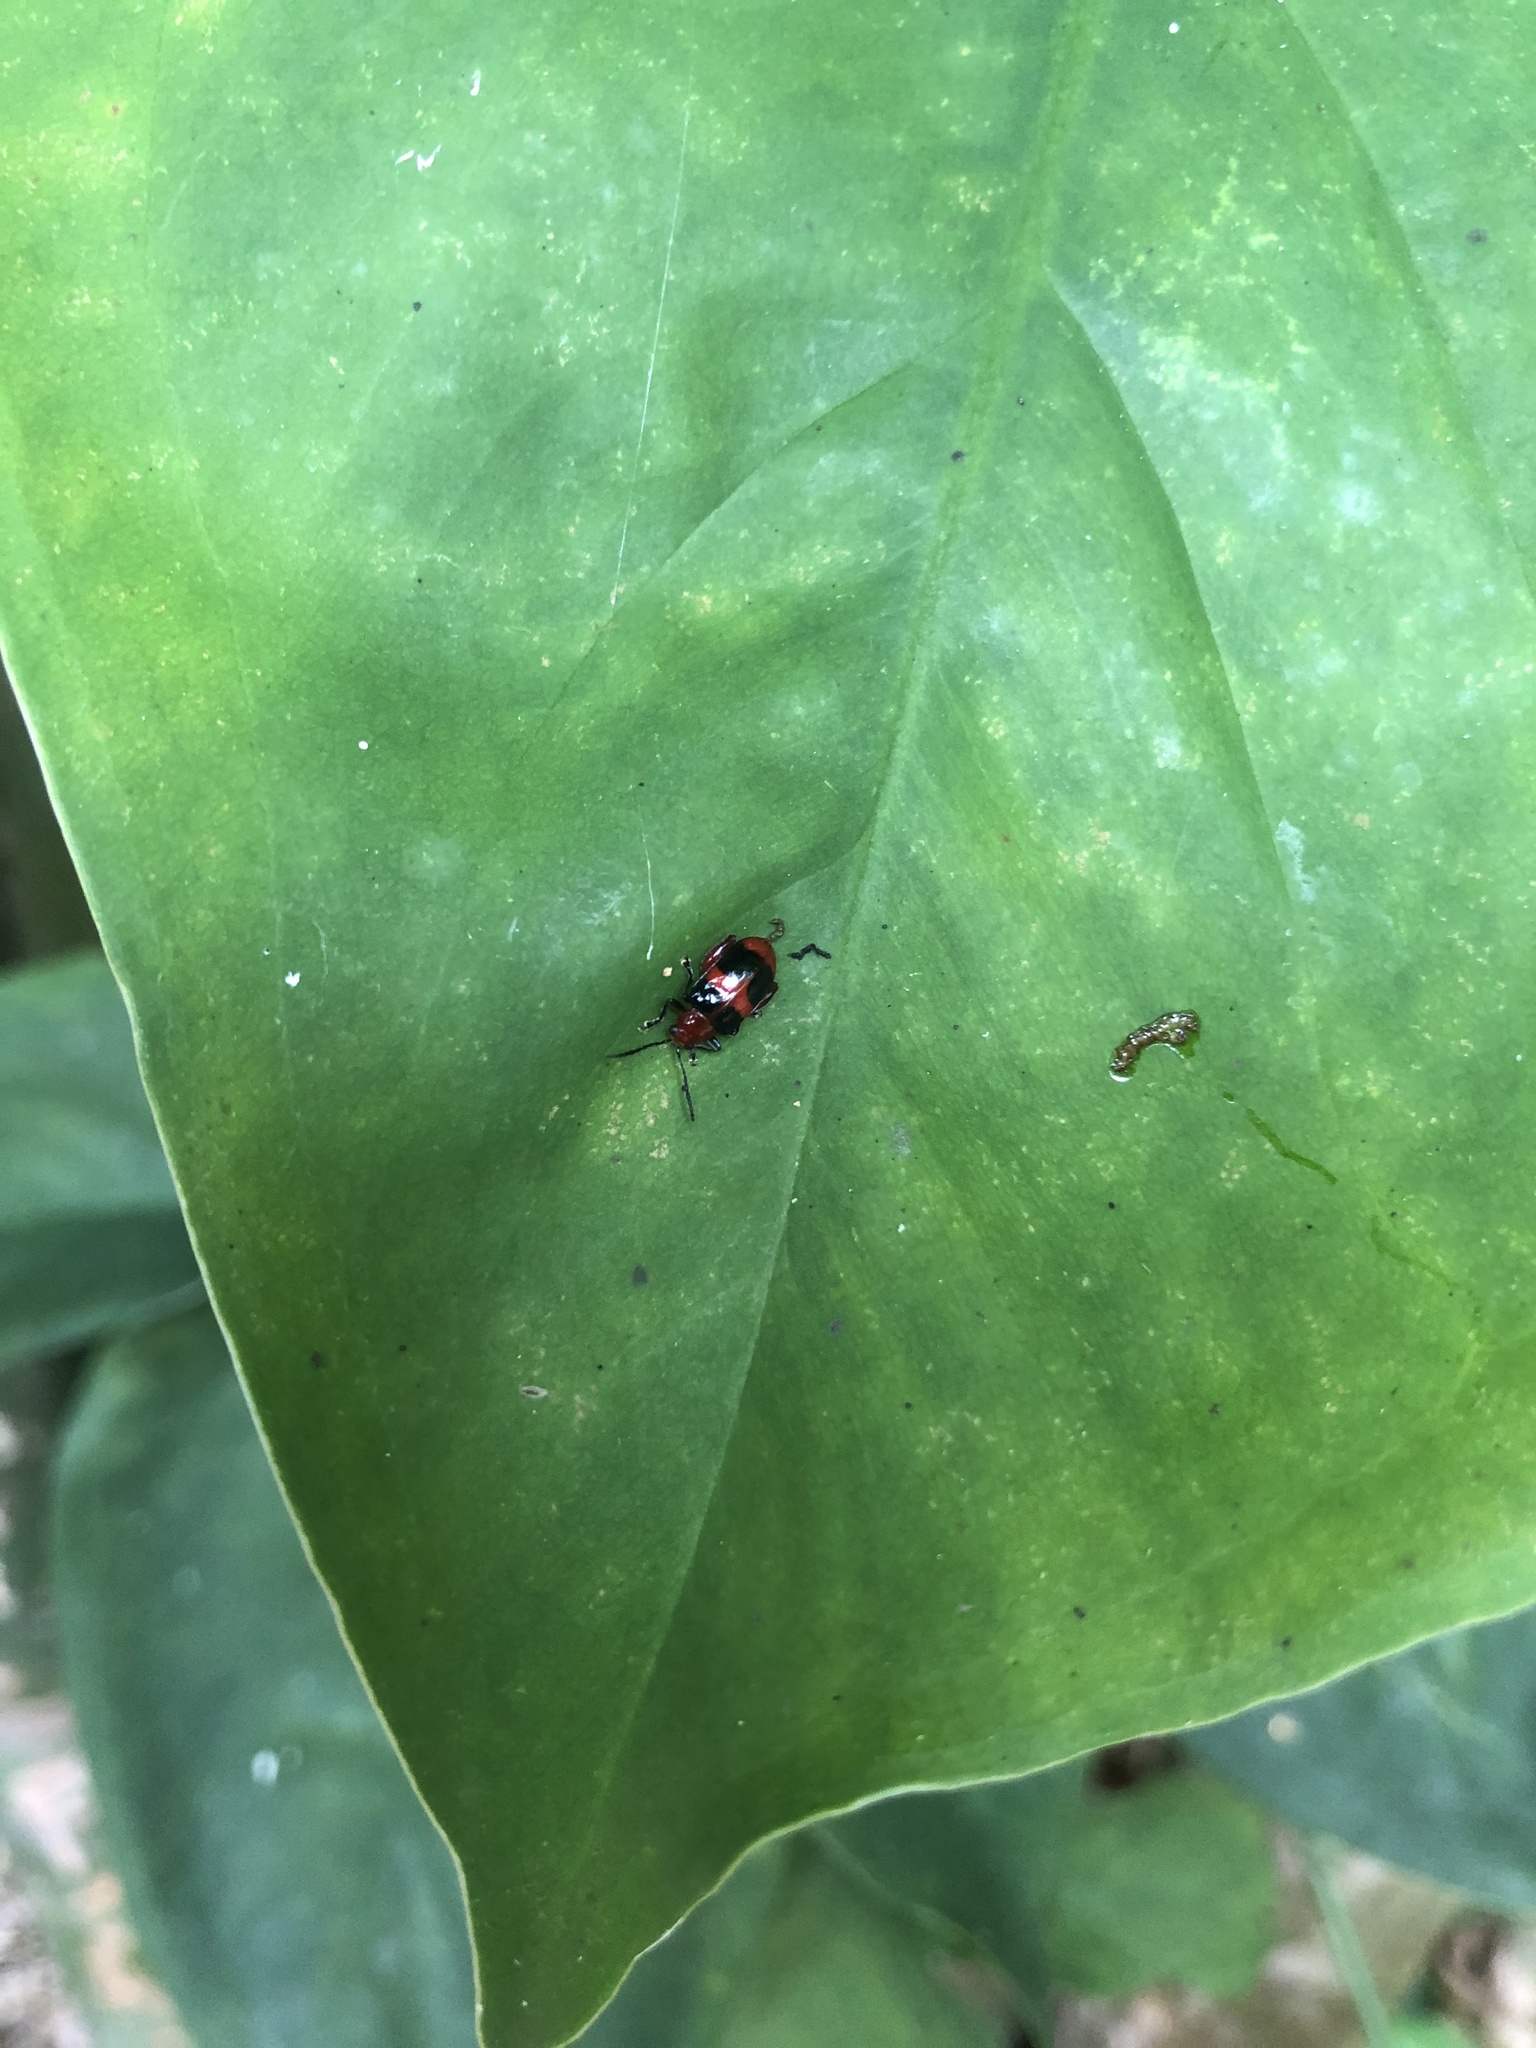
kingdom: Animalia
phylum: Arthropoda
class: Insecta
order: Coleoptera
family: Chrysomelidae
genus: Allochroma
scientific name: Allochroma
